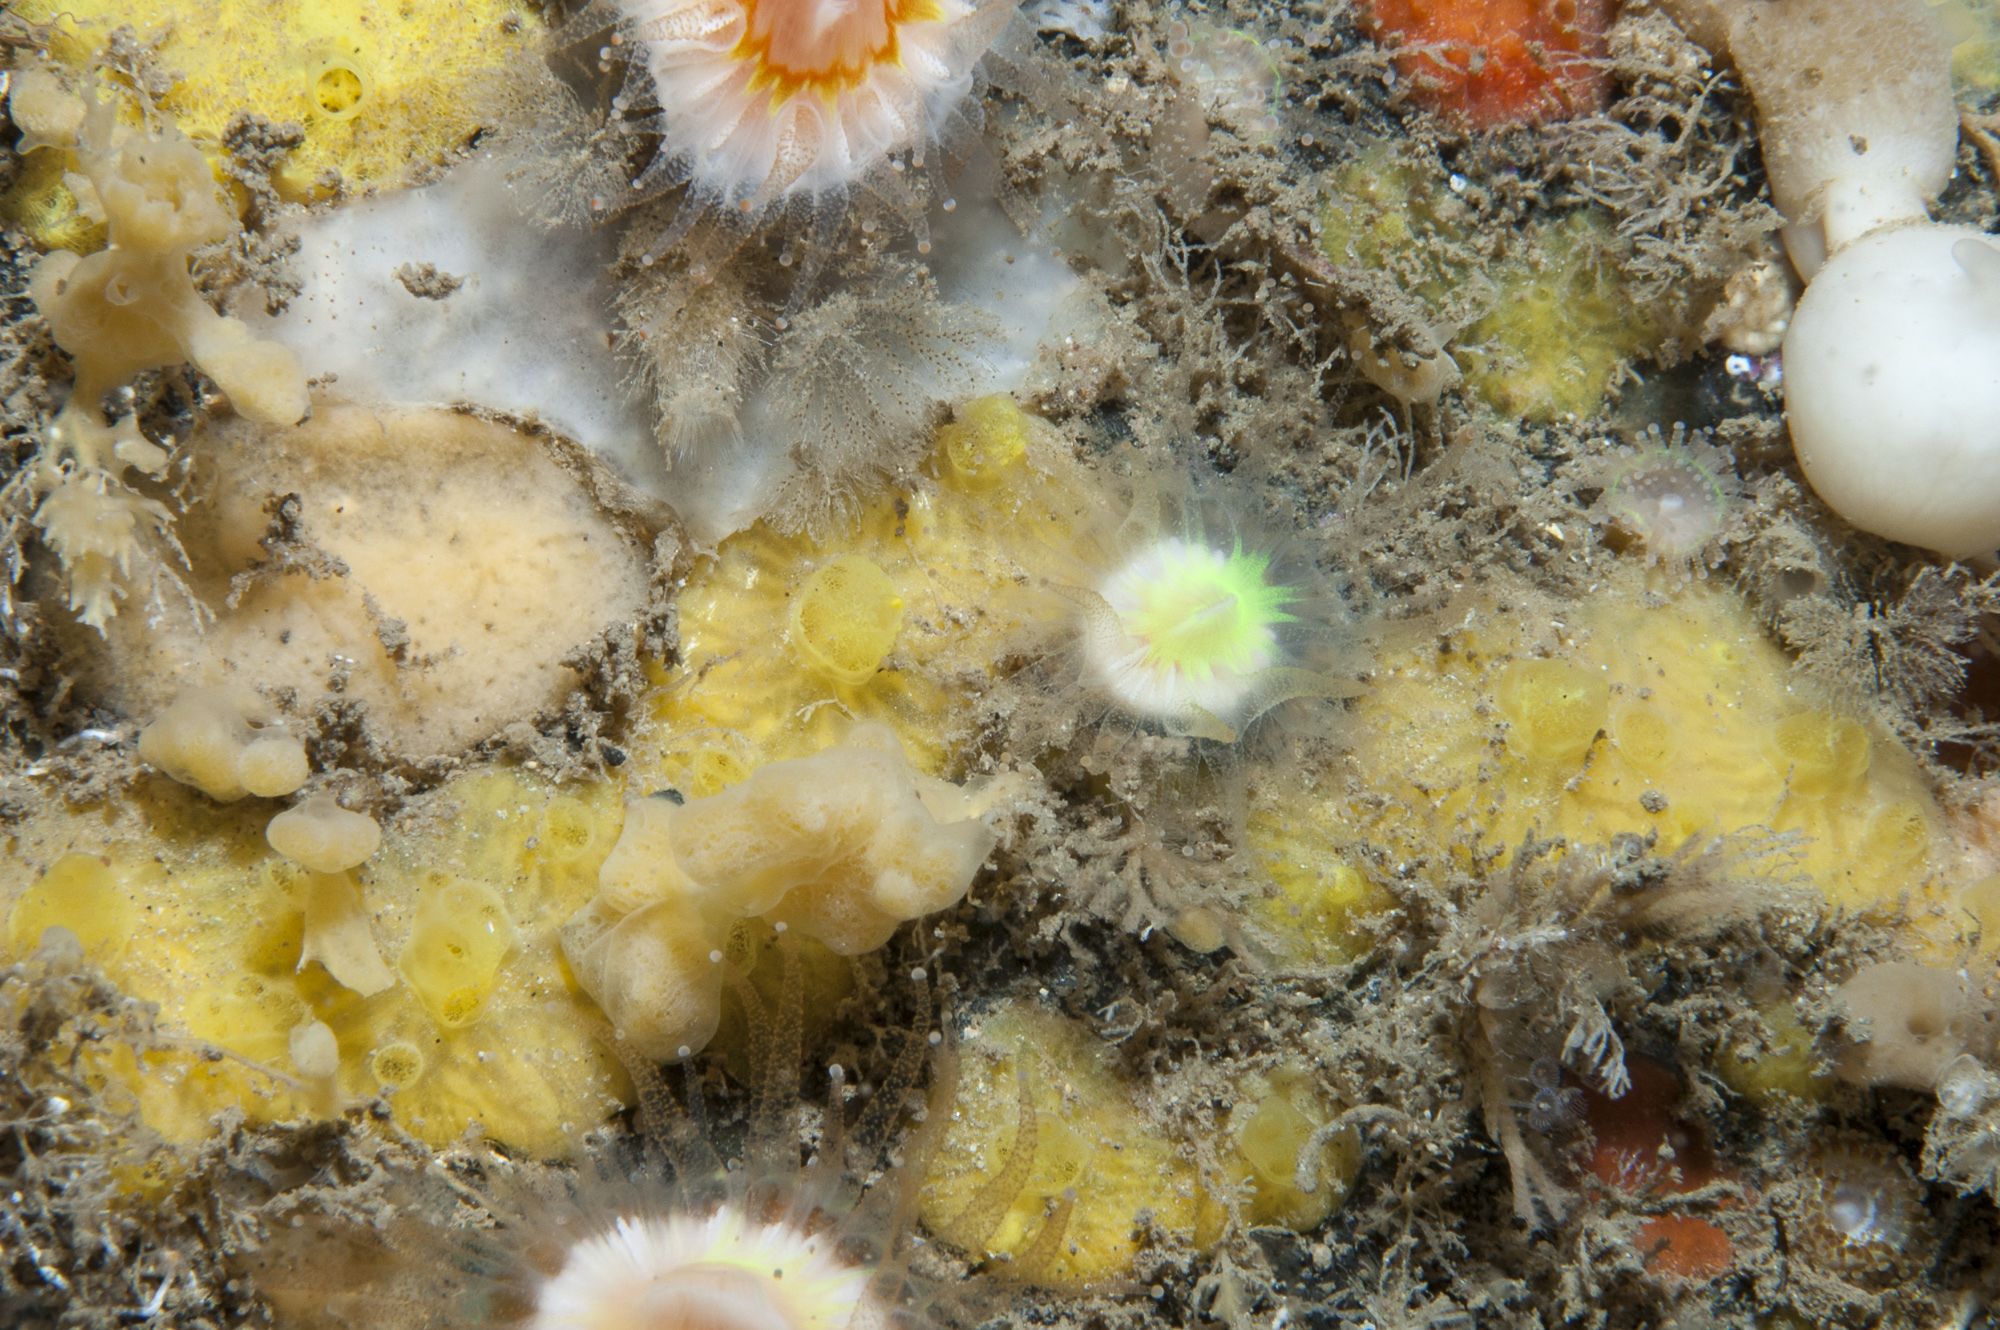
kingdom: Animalia
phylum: Porifera
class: Demospongiae
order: Poecilosclerida
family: Hymedesmiidae
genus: Hymedesmia
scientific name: Hymedesmia rathlinia
